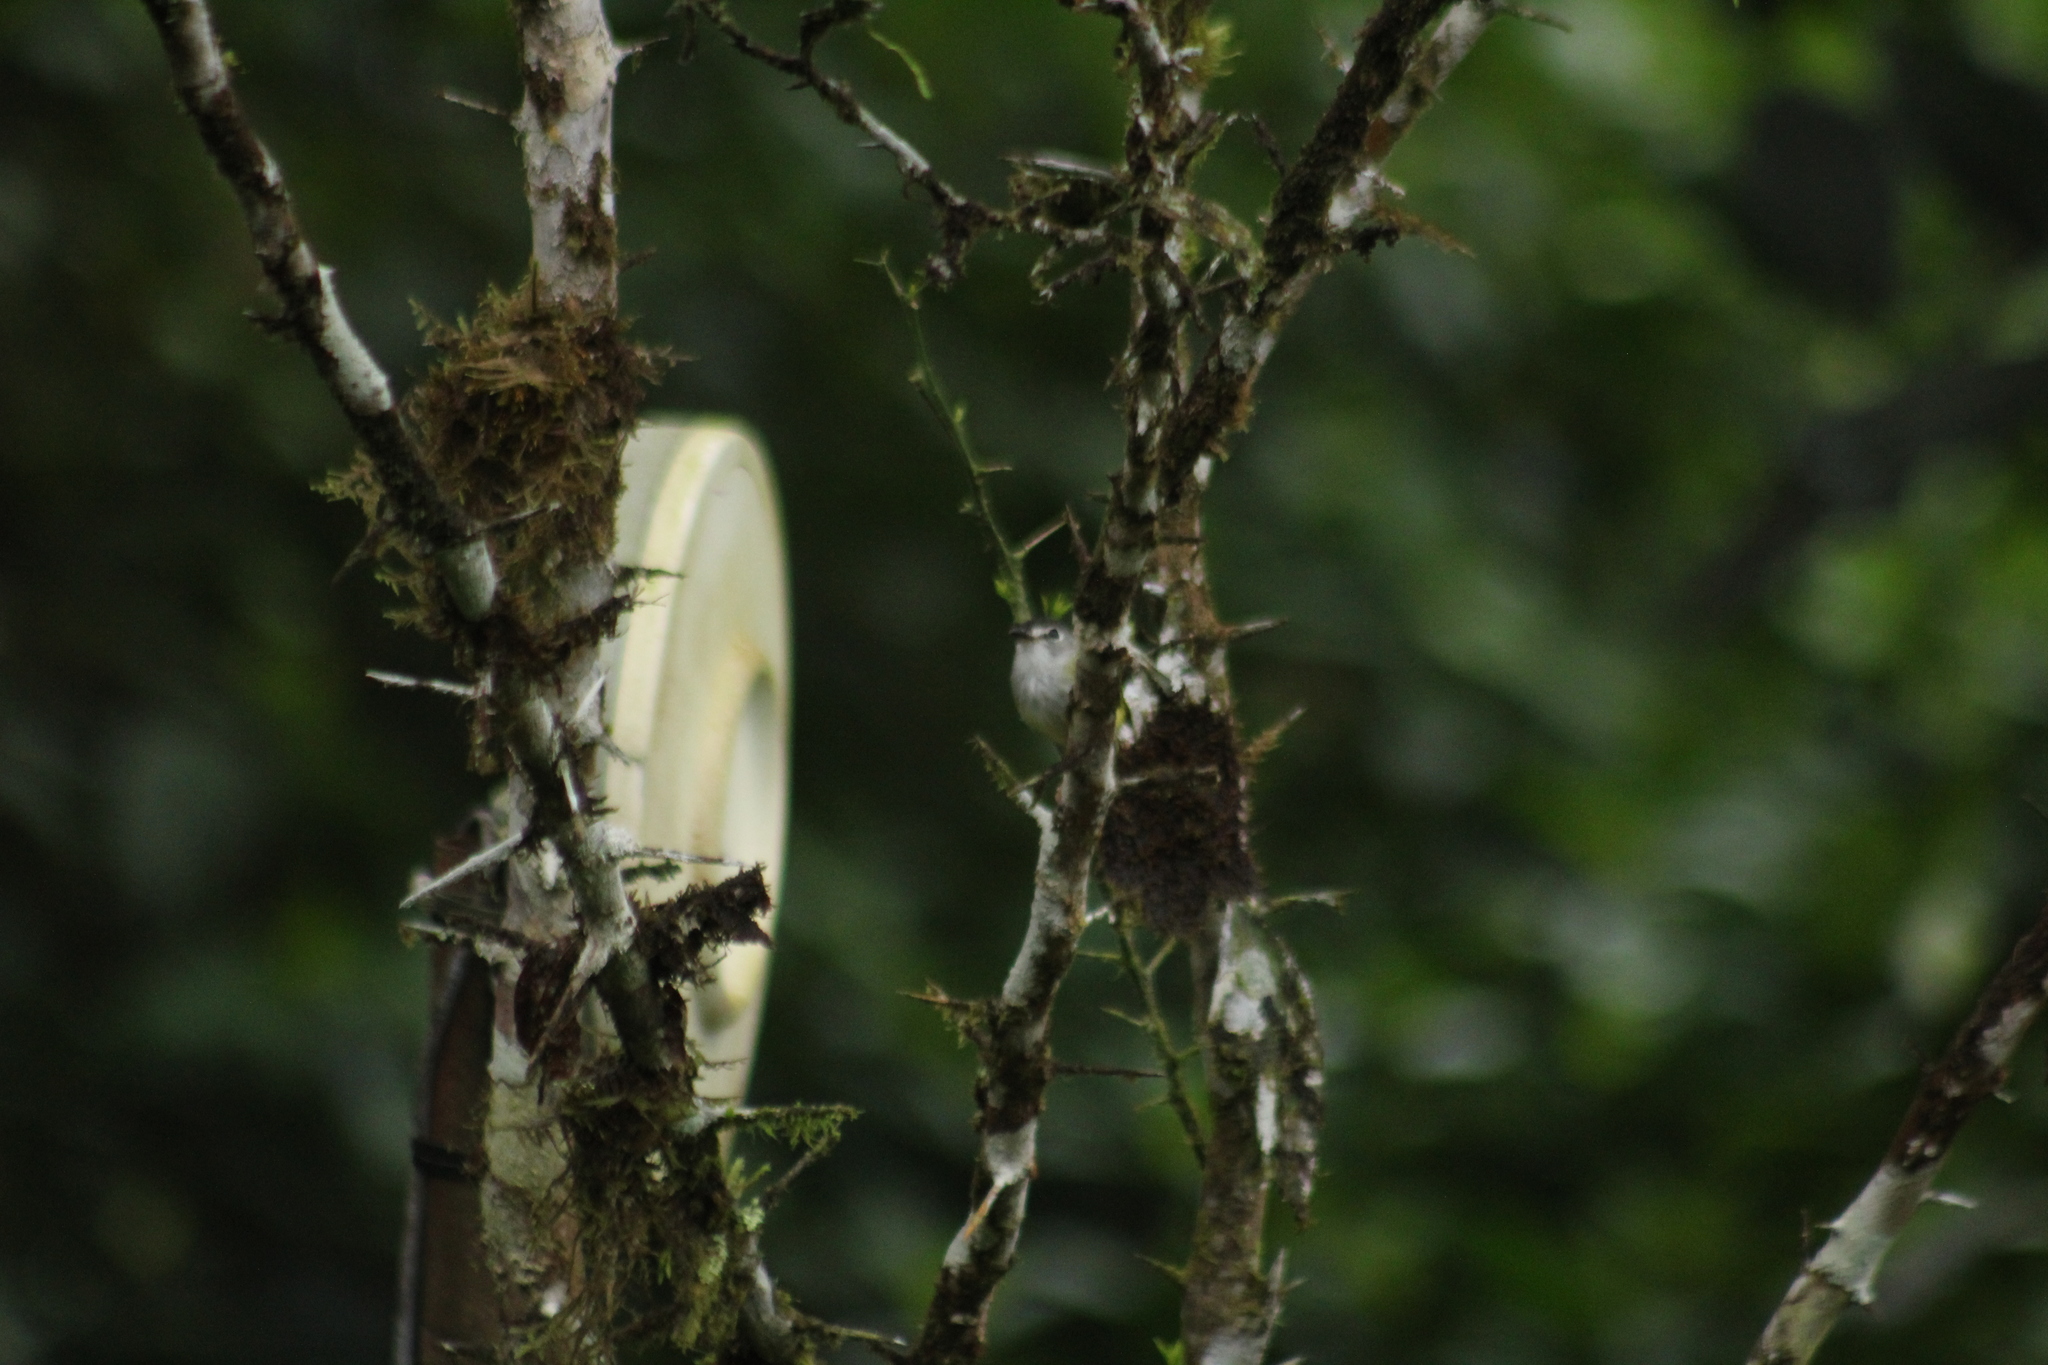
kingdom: Animalia
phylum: Chordata
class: Aves
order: Passeriformes
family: Tyrannidae
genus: Myiornis
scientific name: Myiornis atricapillus
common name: Black-capped pygmy-tyrant
